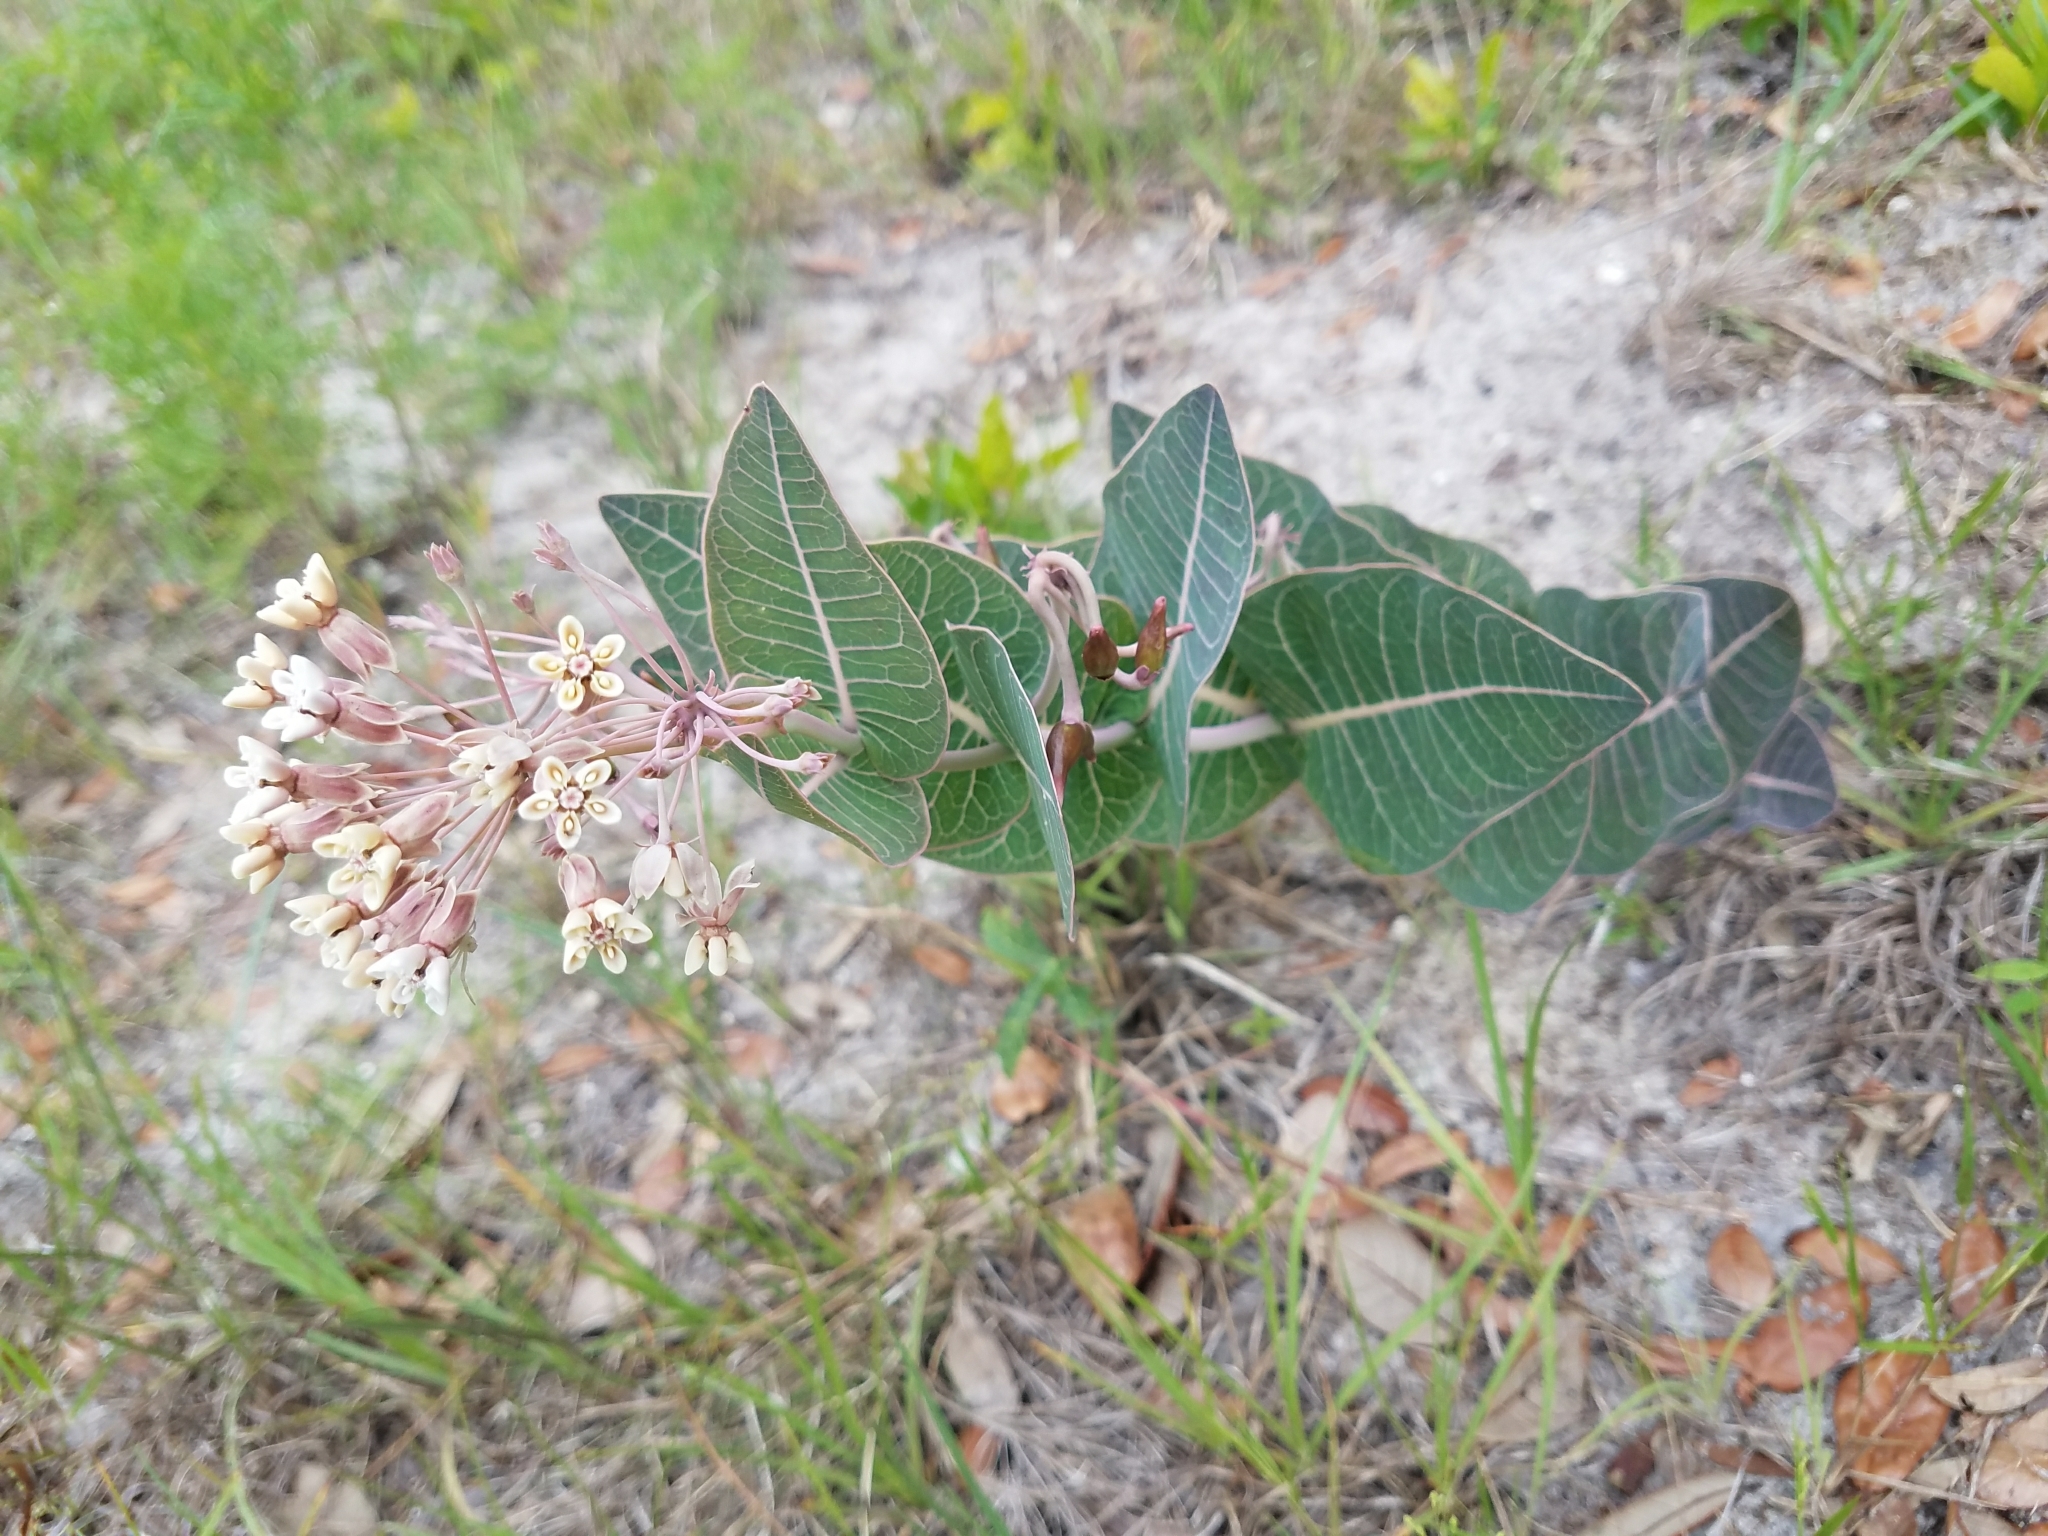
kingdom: Plantae
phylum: Tracheophyta
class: Magnoliopsida
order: Gentianales
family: Apocynaceae
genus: Asclepias
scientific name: Asclepias humistrata
